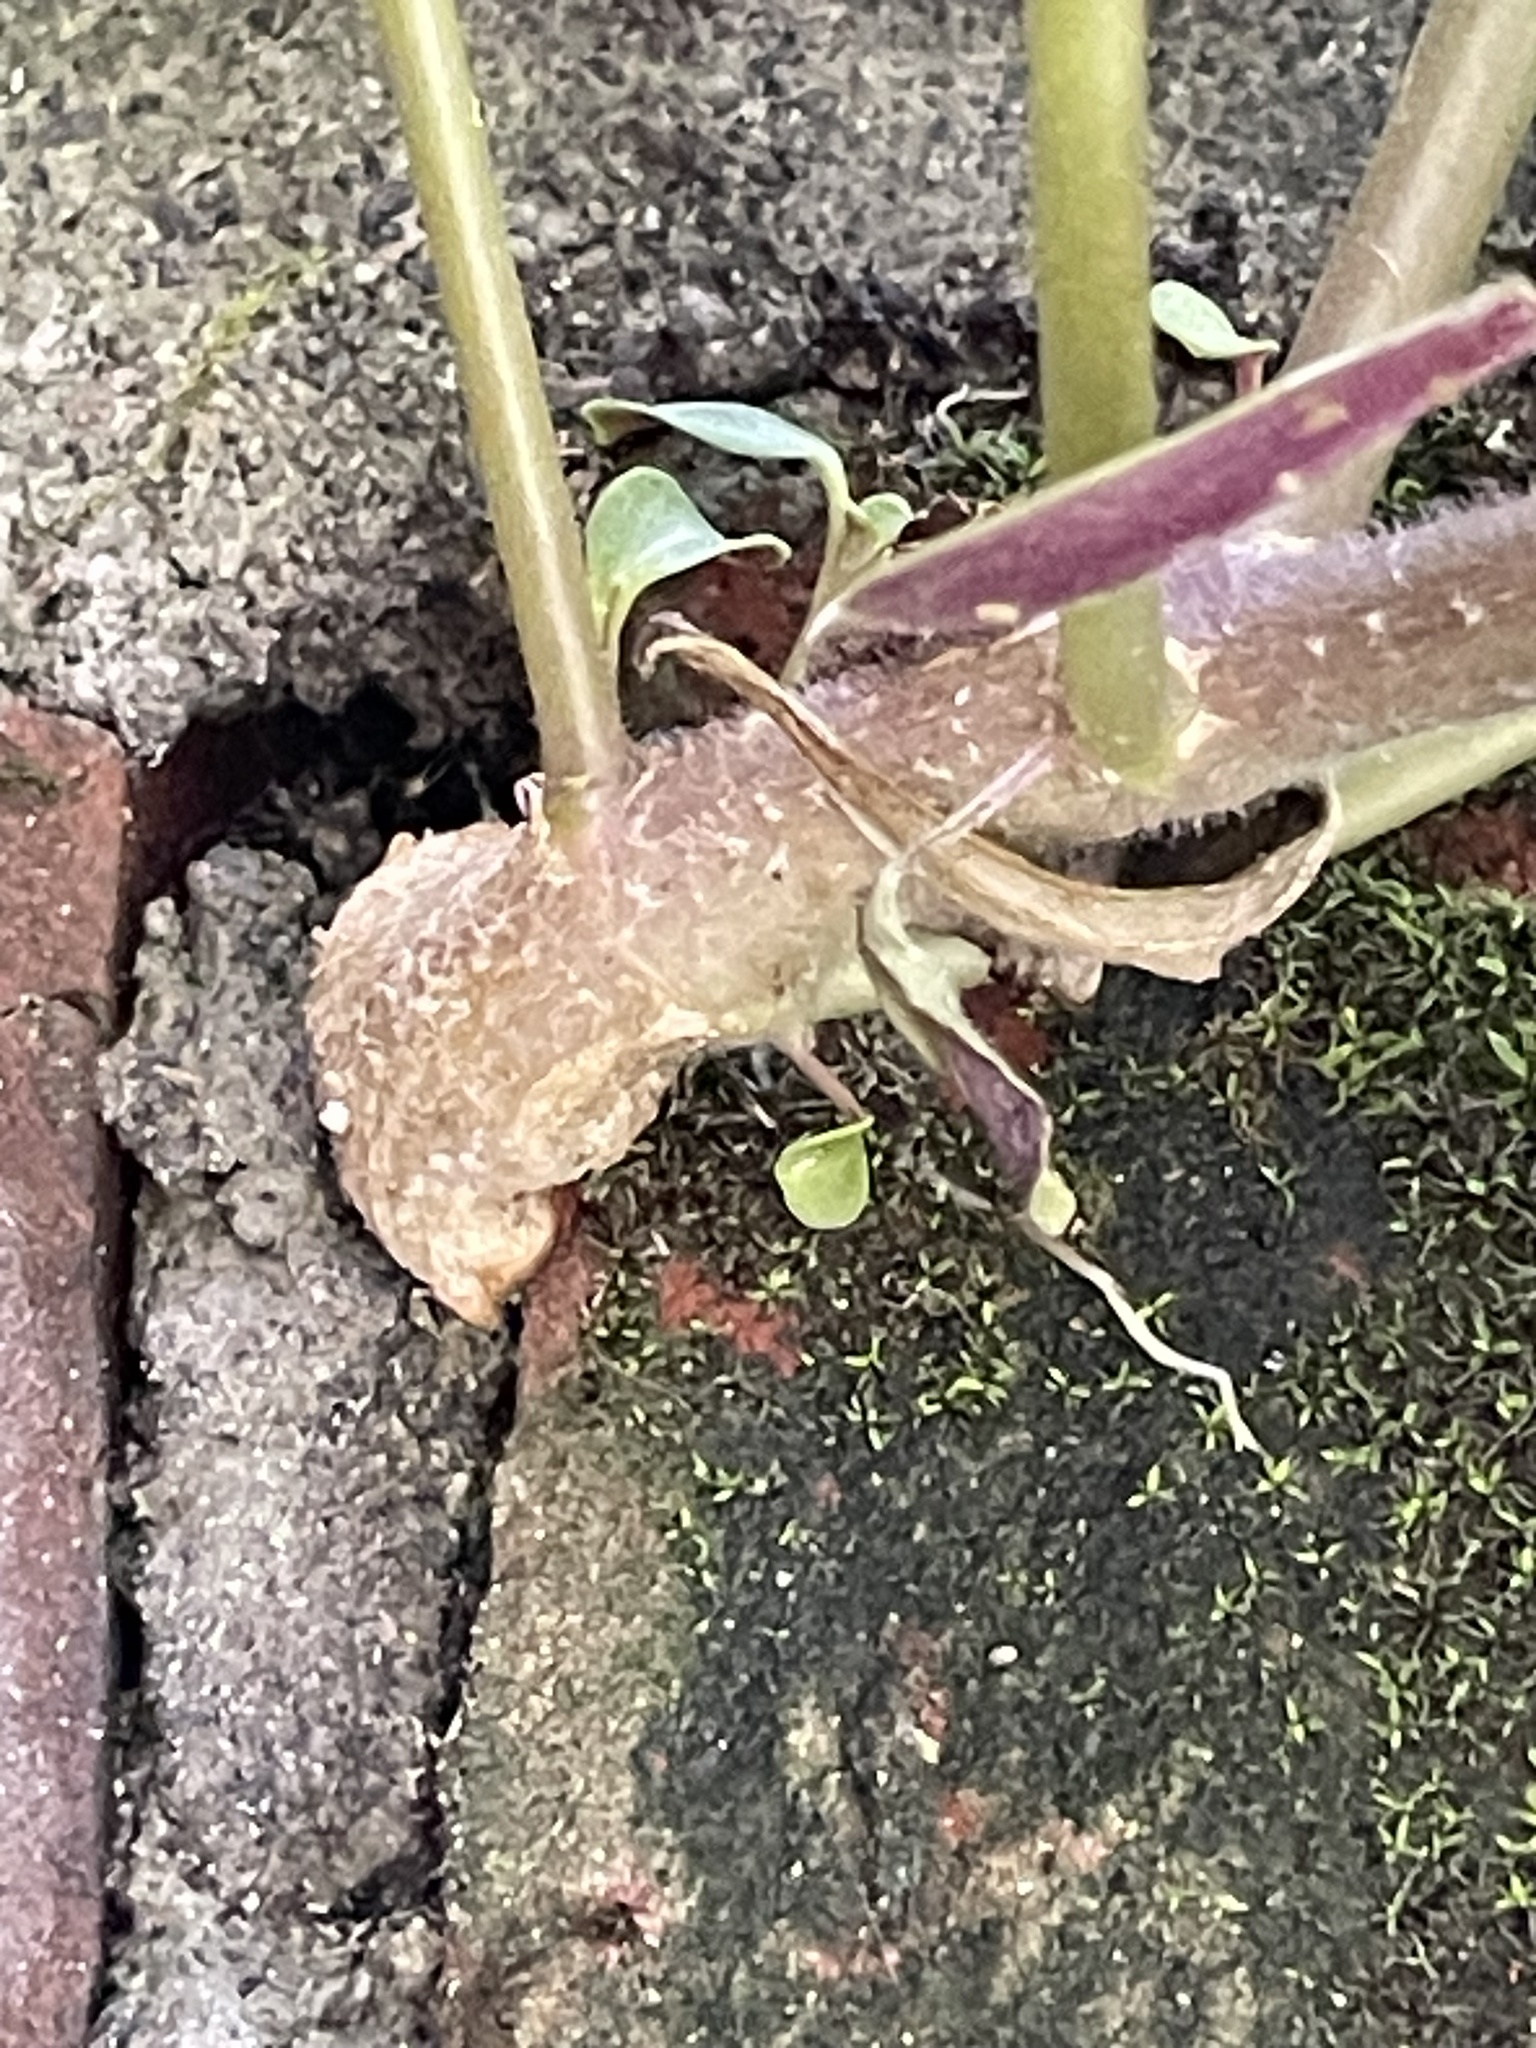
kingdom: Plantae
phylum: Tracheophyta
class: Magnoliopsida
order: Lamiales
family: Plantaginaceae
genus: Antirrhinum
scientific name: Antirrhinum majus
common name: Snapdragon
